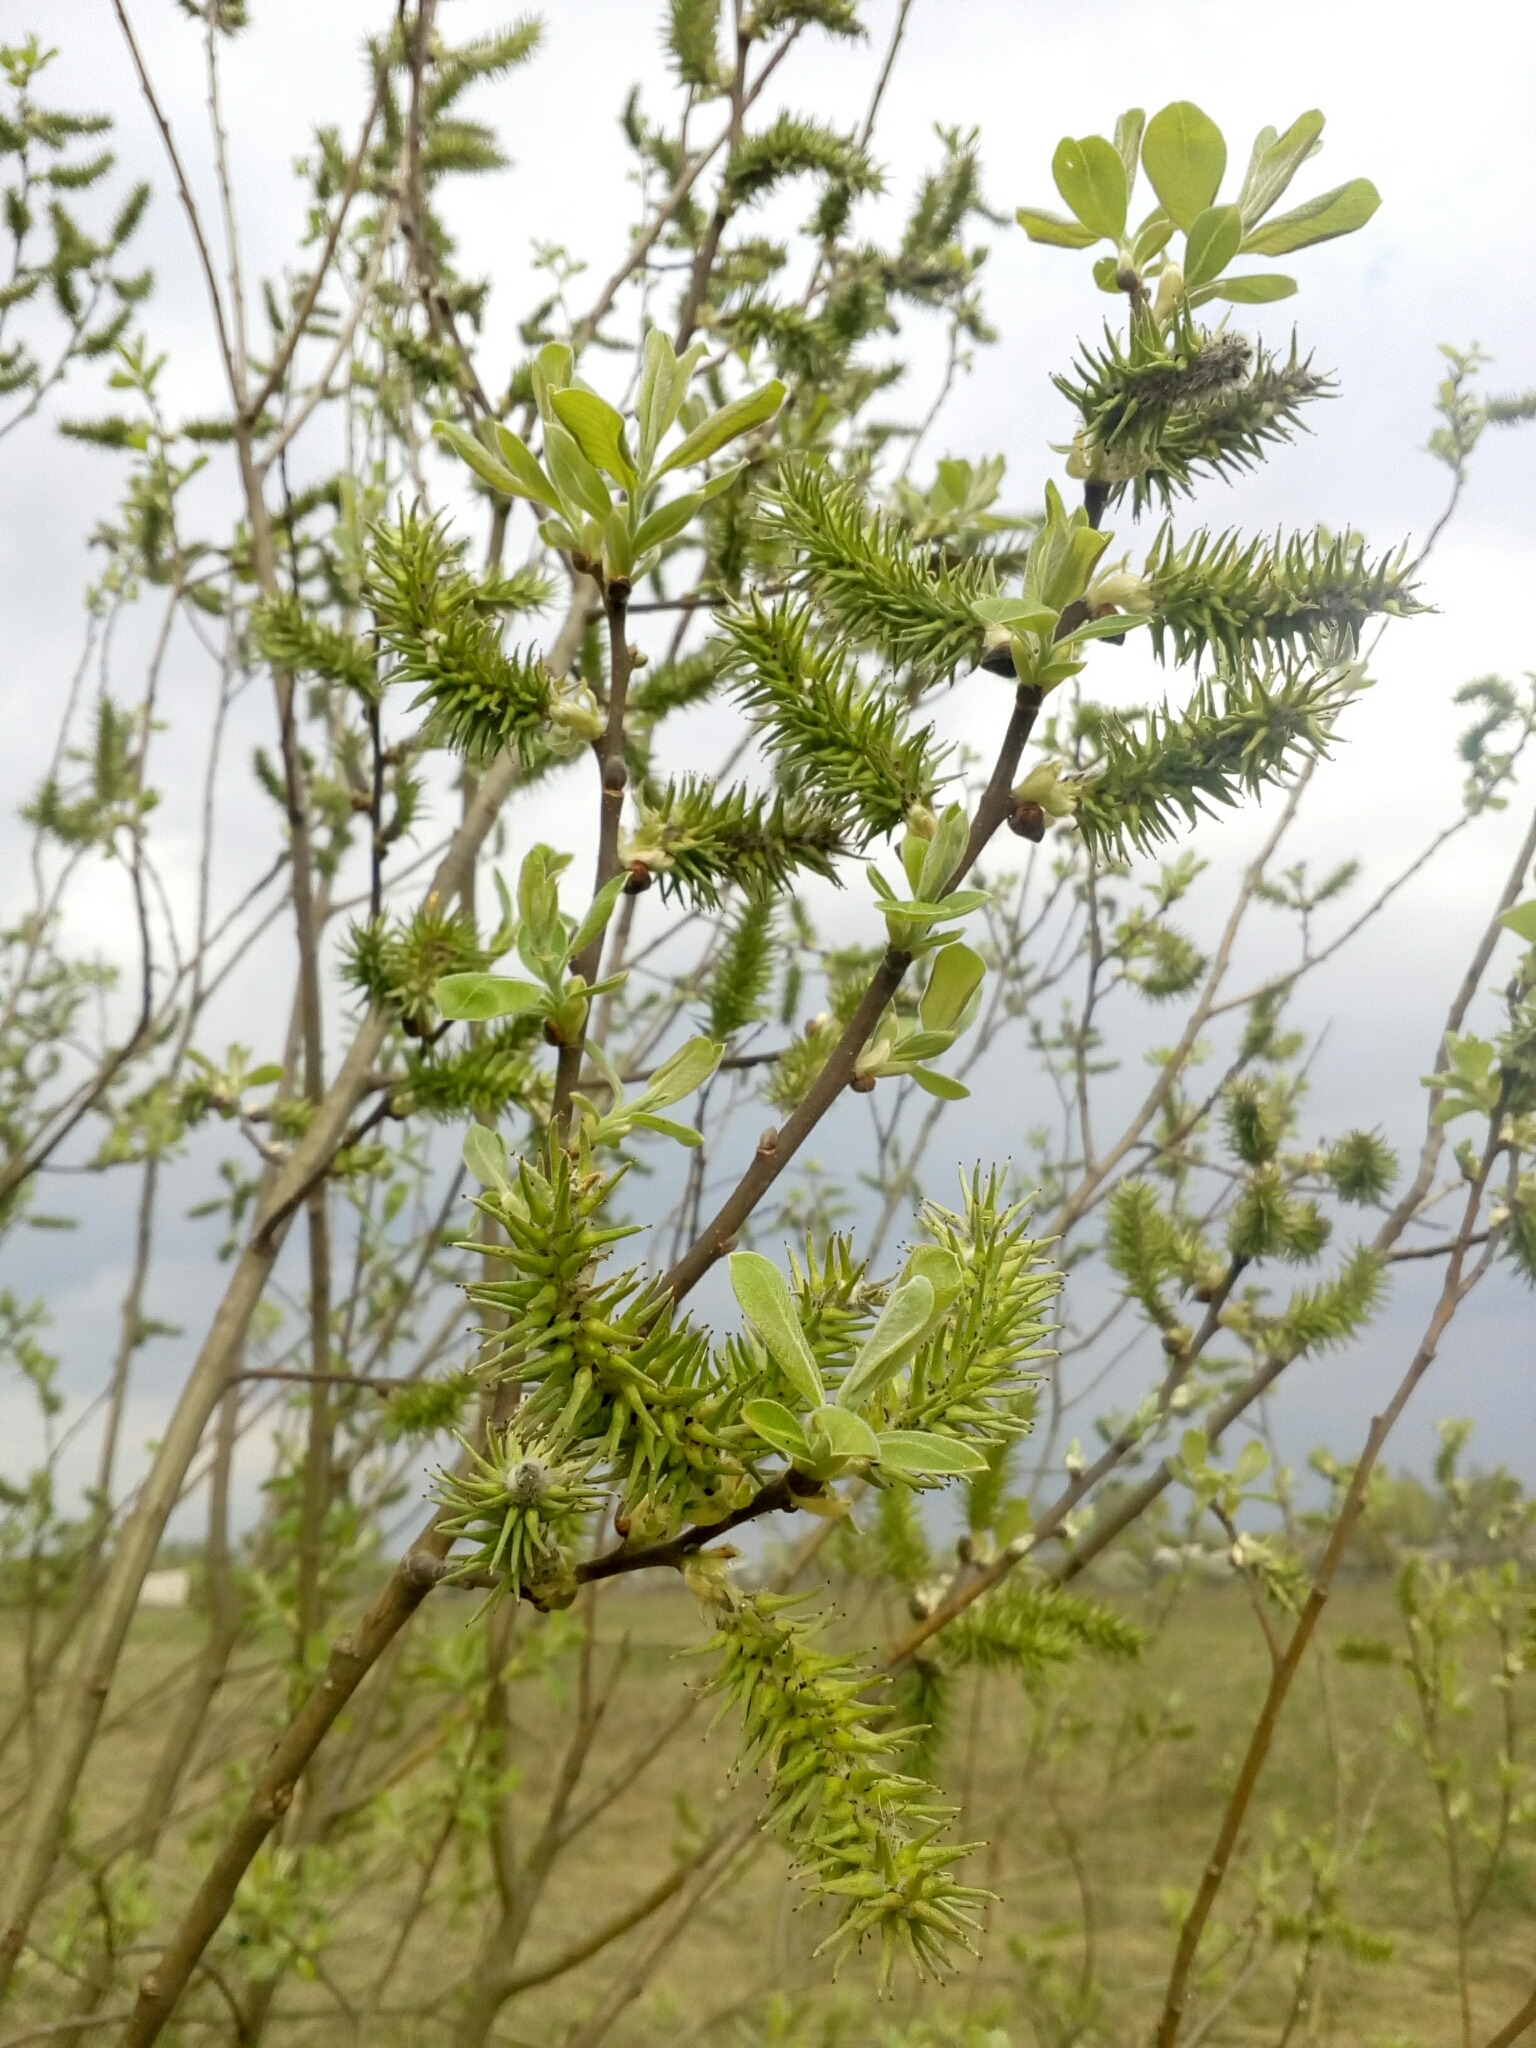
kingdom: Plantae
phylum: Tracheophyta
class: Magnoliopsida
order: Malpighiales
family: Salicaceae
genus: Salix
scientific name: Salix cinerea
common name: Common sallow
